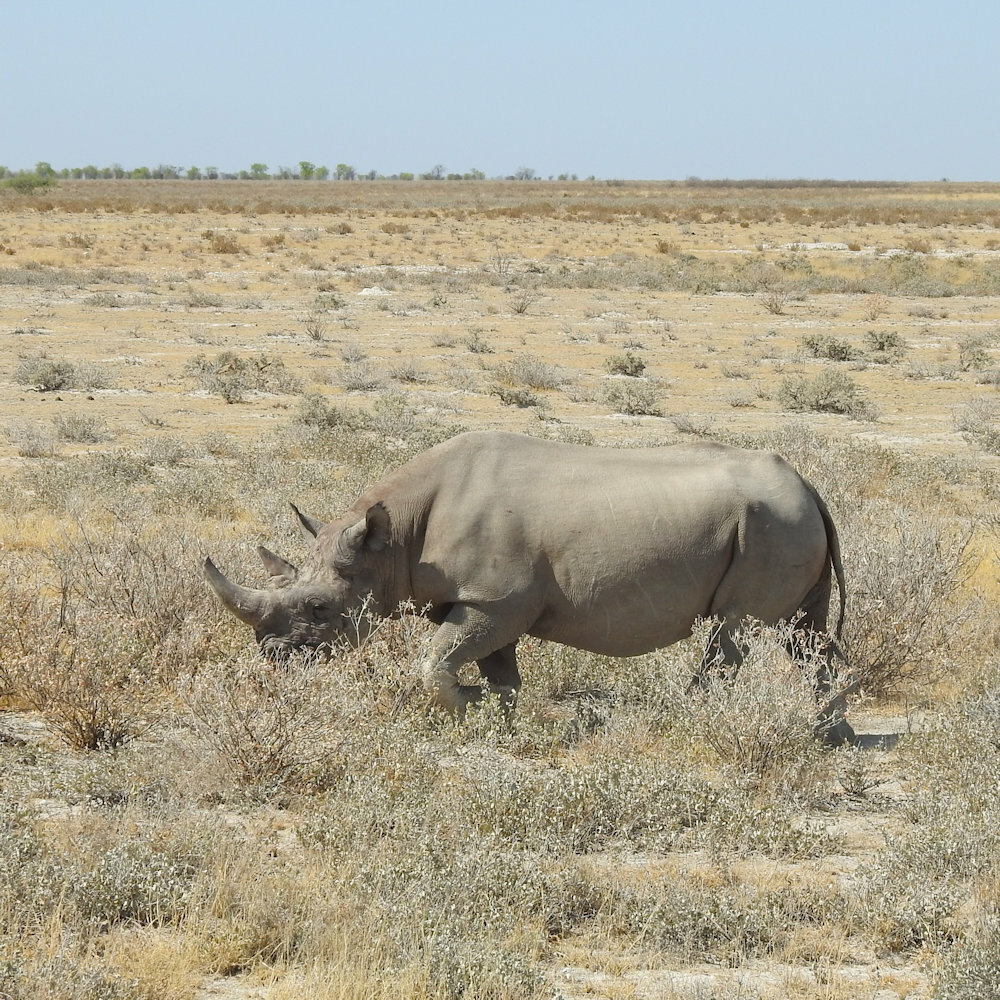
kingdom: Animalia
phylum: Chordata
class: Mammalia
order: Perissodactyla
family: Rhinocerotidae
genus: Diceros
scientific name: Diceros bicornis
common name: Black rhinoceros
